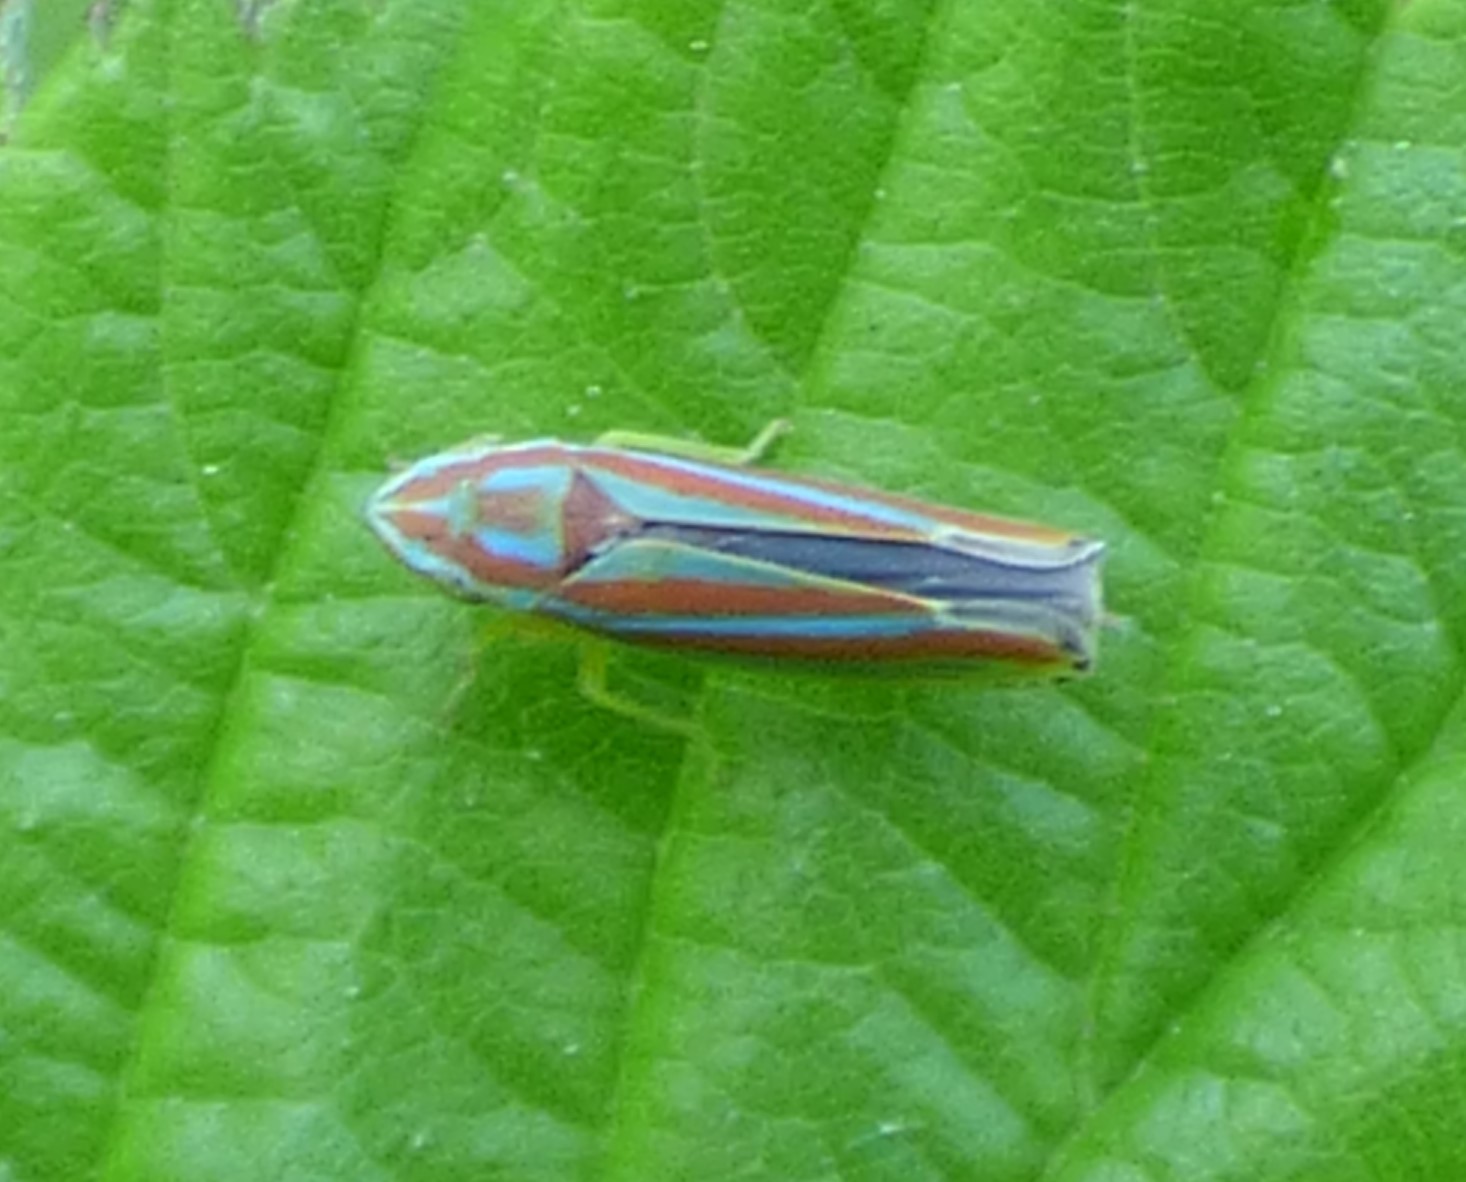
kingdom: Animalia
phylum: Arthropoda
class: Insecta
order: Hemiptera
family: Cicadellidae
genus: Graphocephala
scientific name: Graphocephala versuta
